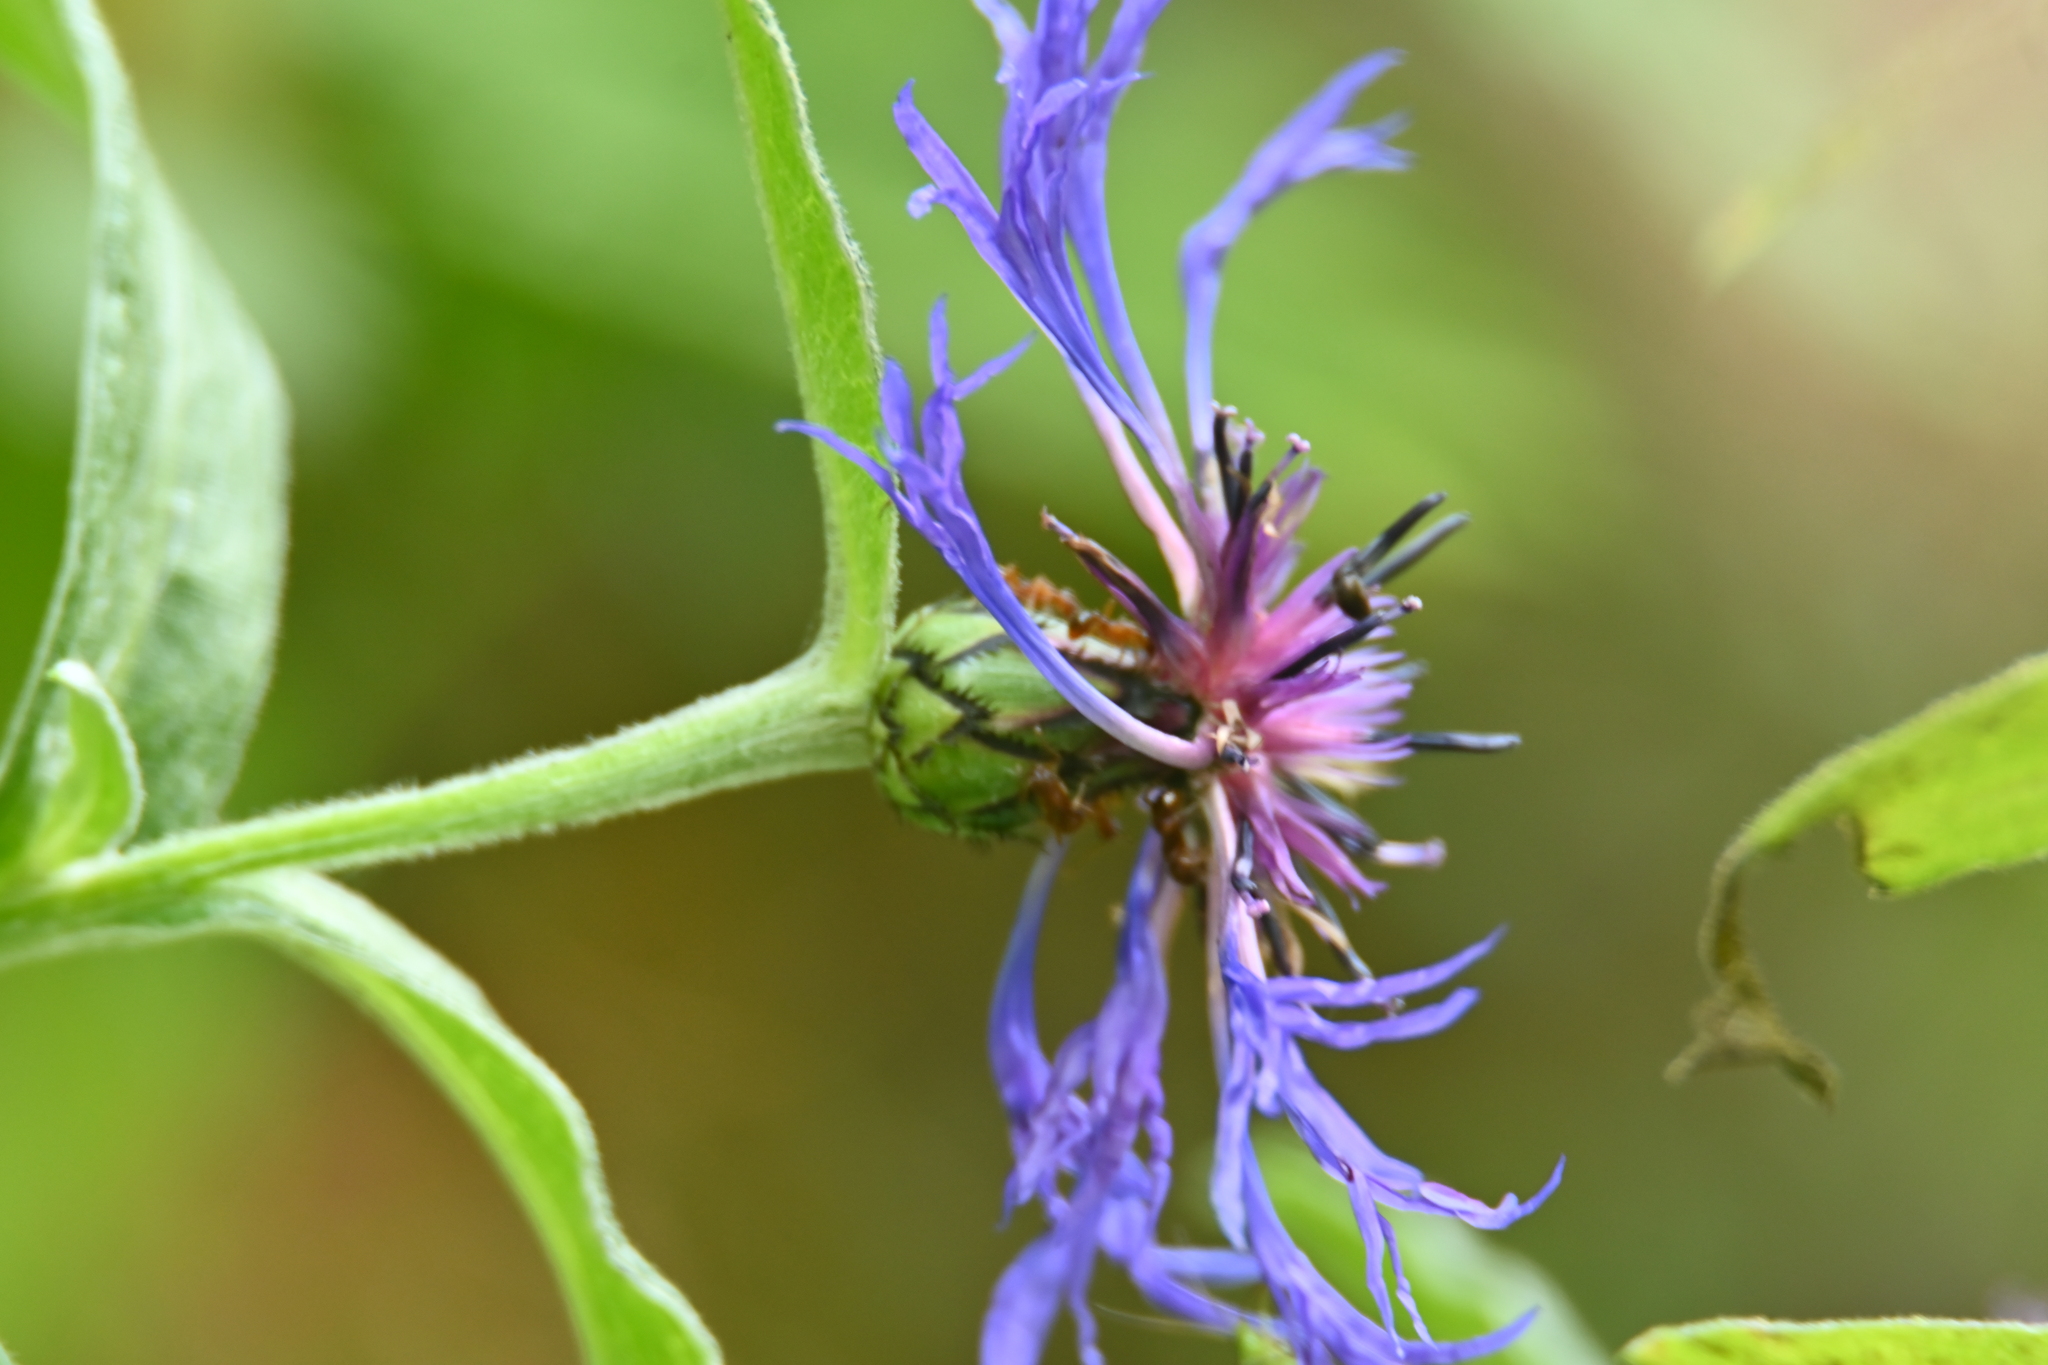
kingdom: Plantae
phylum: Tracheophyta
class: Magnoliopsida
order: Asterales
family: Asteraceae
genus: Centaurea
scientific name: Centaurea montana
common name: Perennial cornflower
